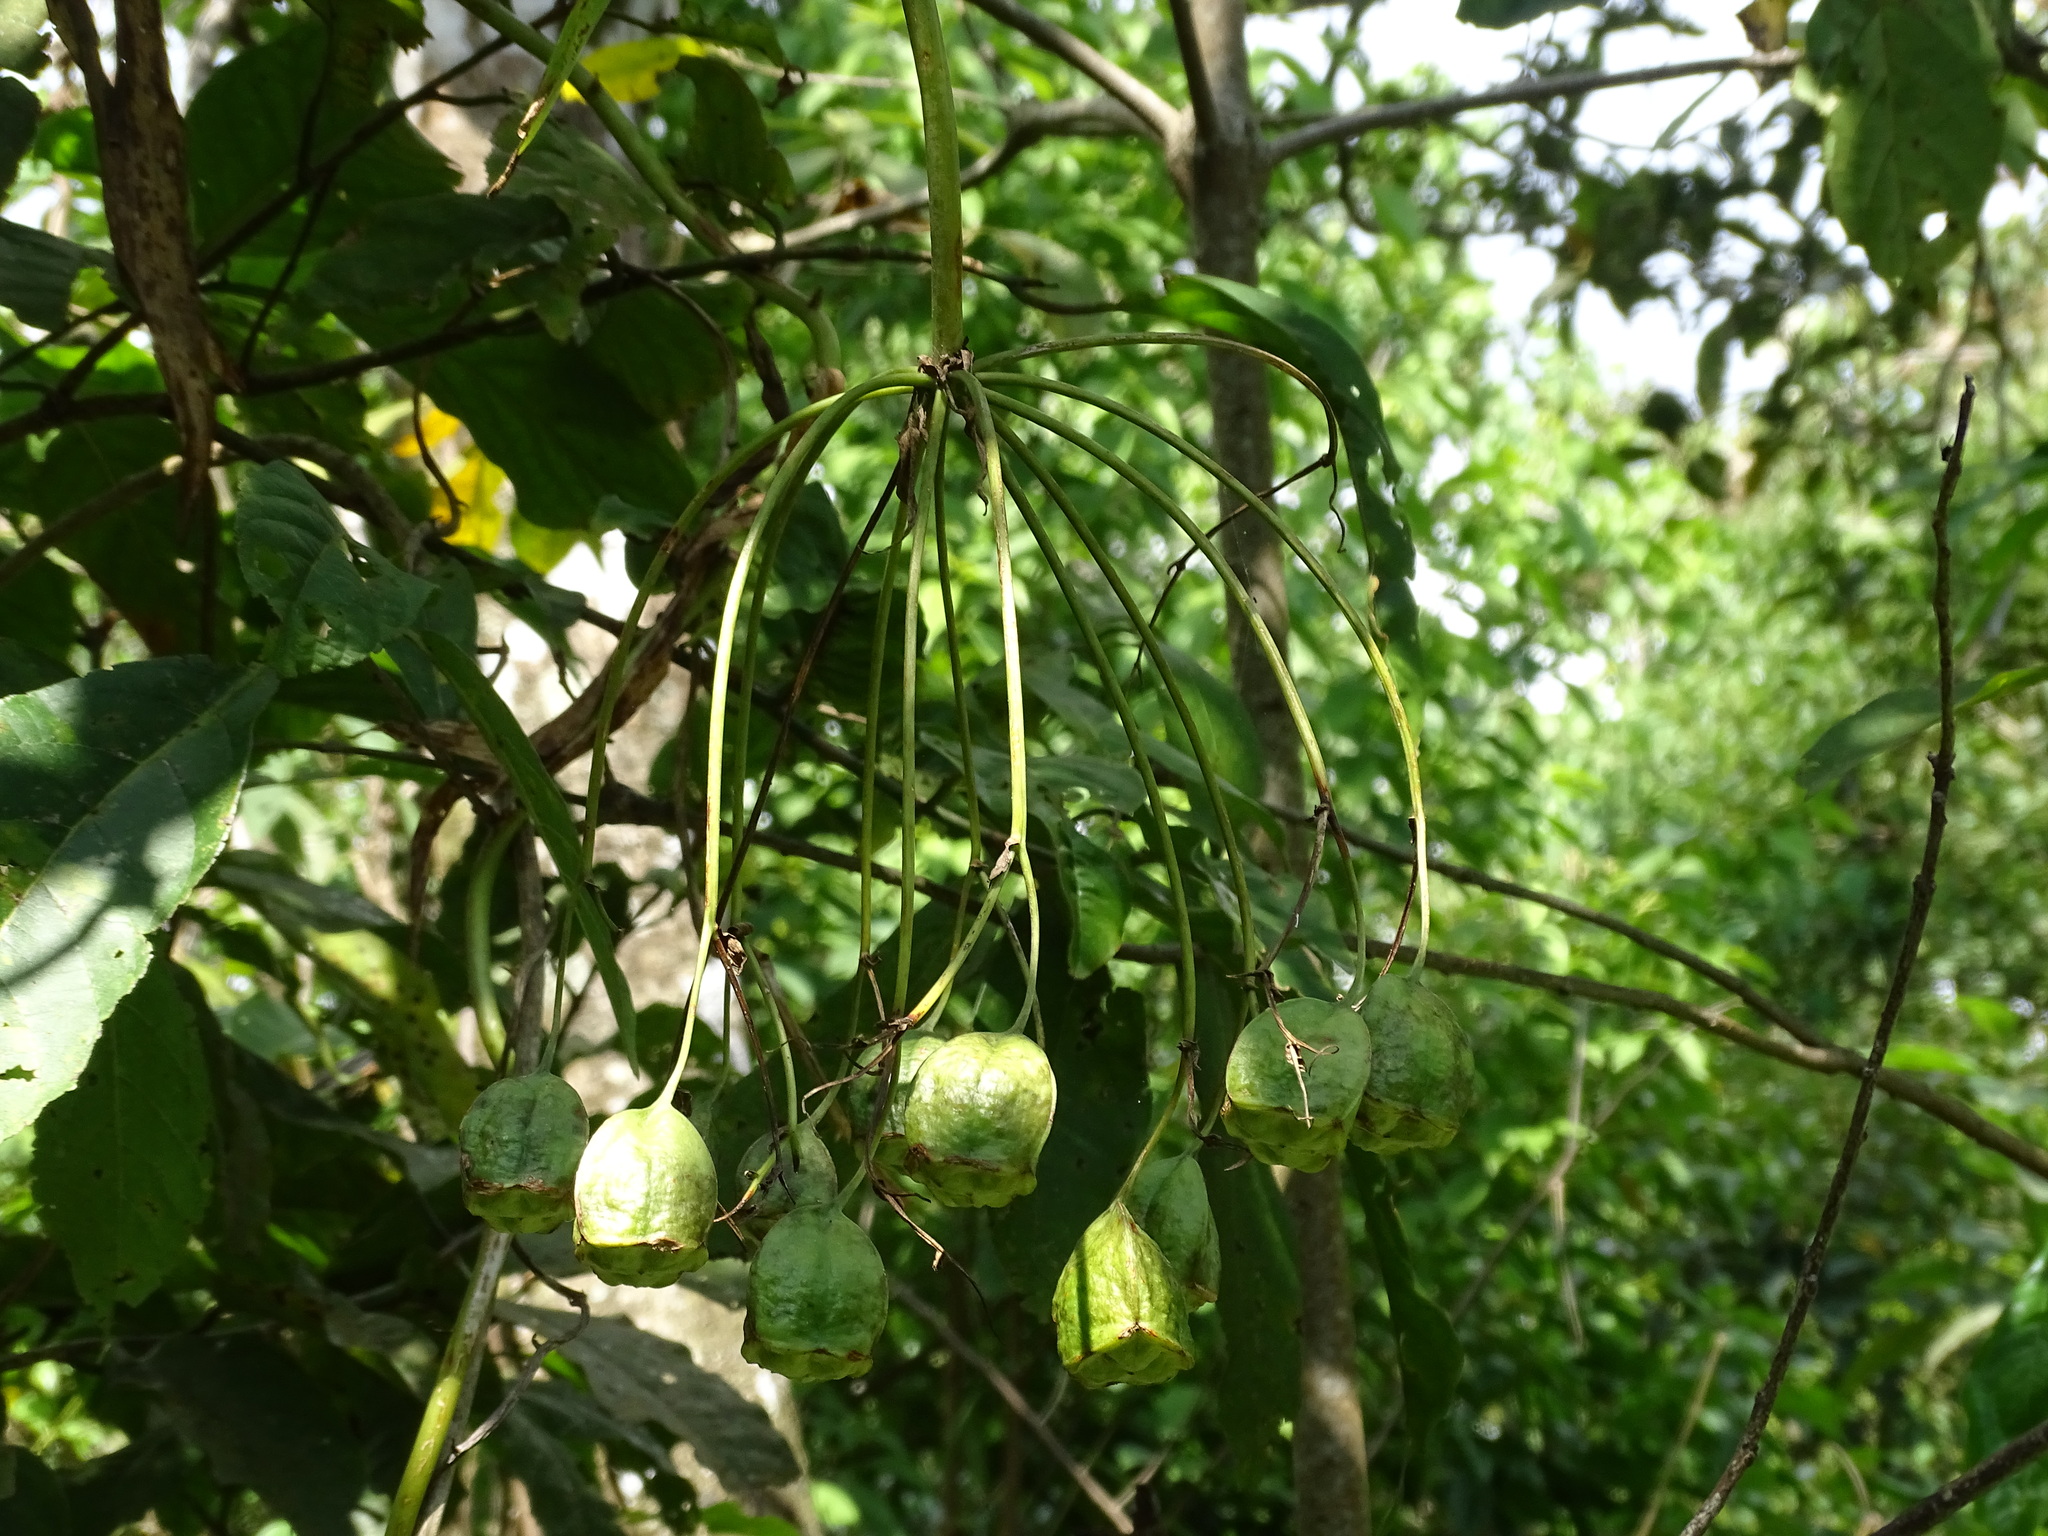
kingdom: Plantae
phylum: Tracheophyta
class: Liliopsida
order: Liliales
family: Alstroemeriaceae
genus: Bomarea
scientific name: Bomarea edulis
